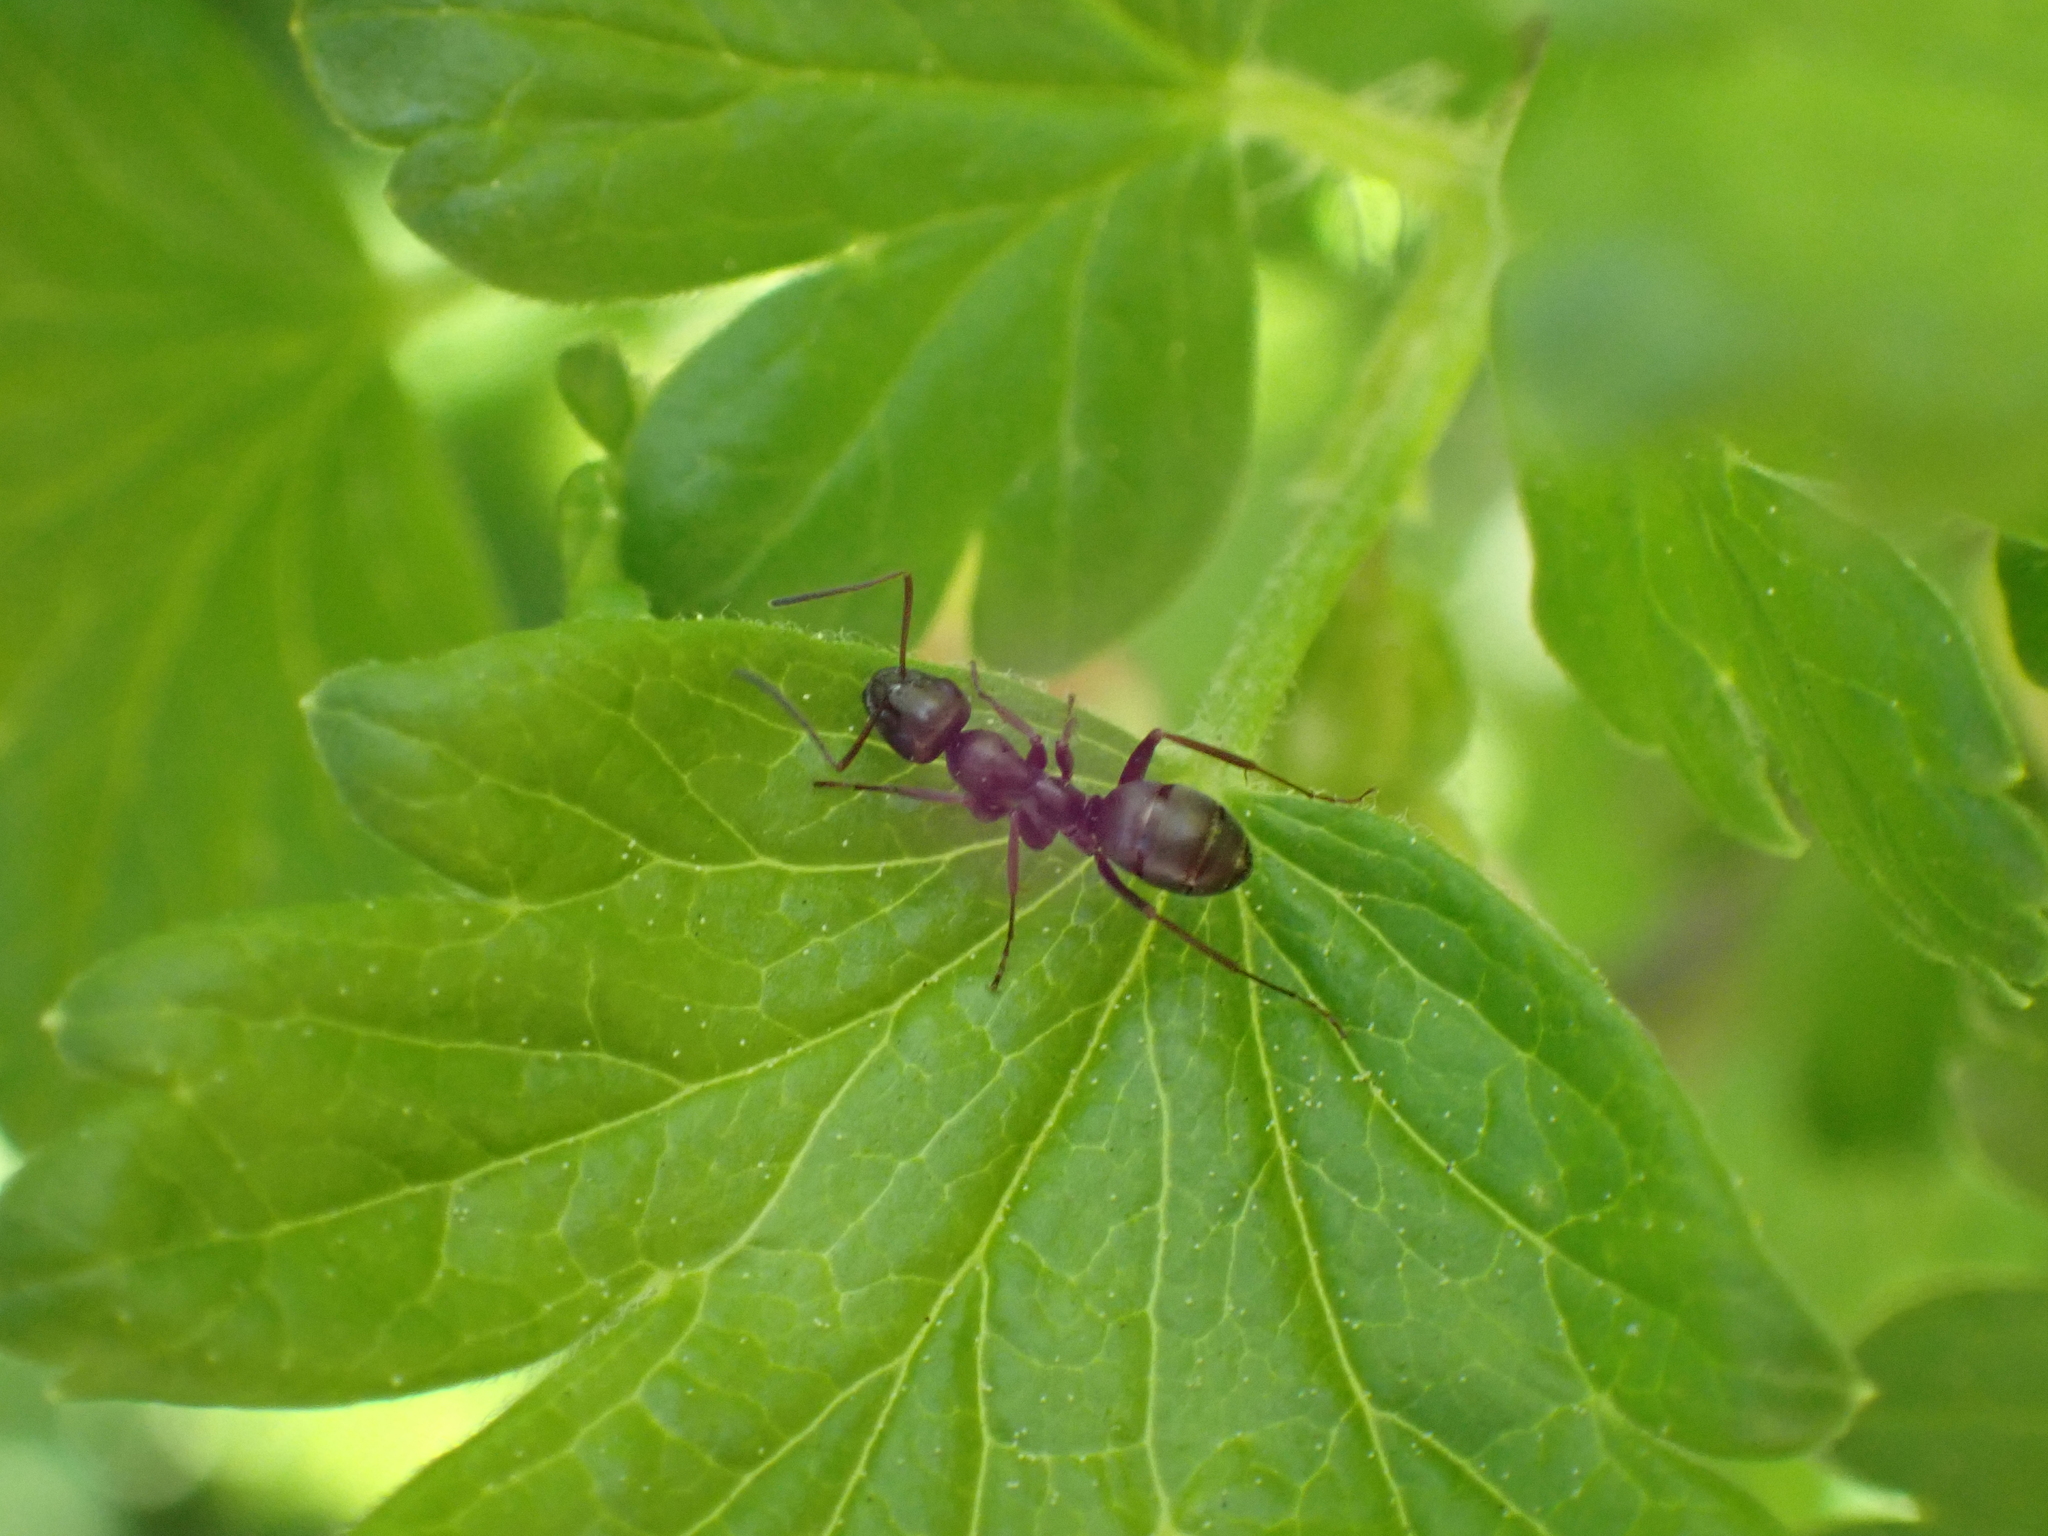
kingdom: Animalia
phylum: Arthropoda
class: Insecta
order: Hymenoptera
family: Formicidae
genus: Formica
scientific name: Formica
